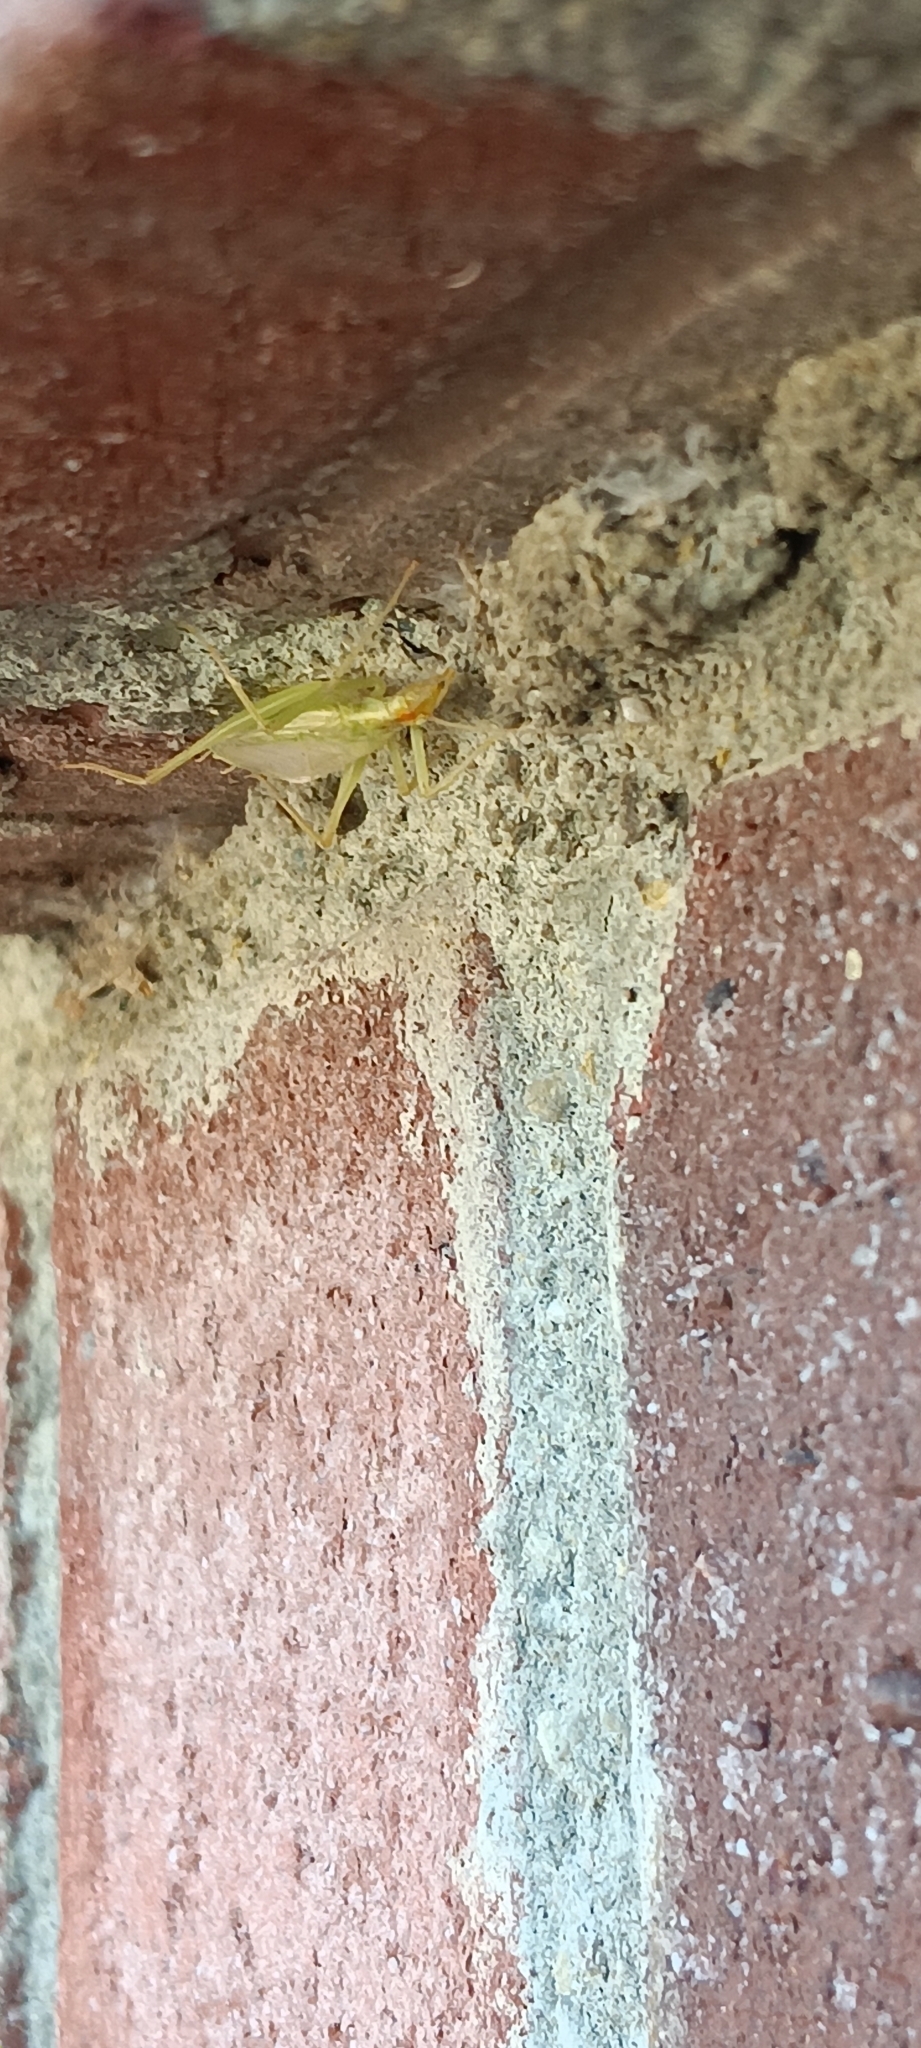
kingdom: Animalia
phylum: Arthropoda
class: Insecta
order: Orthoptera
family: Gryllidae
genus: Oecanthus
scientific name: Oecanthus niveus
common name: Narrow-winged tree cricket
